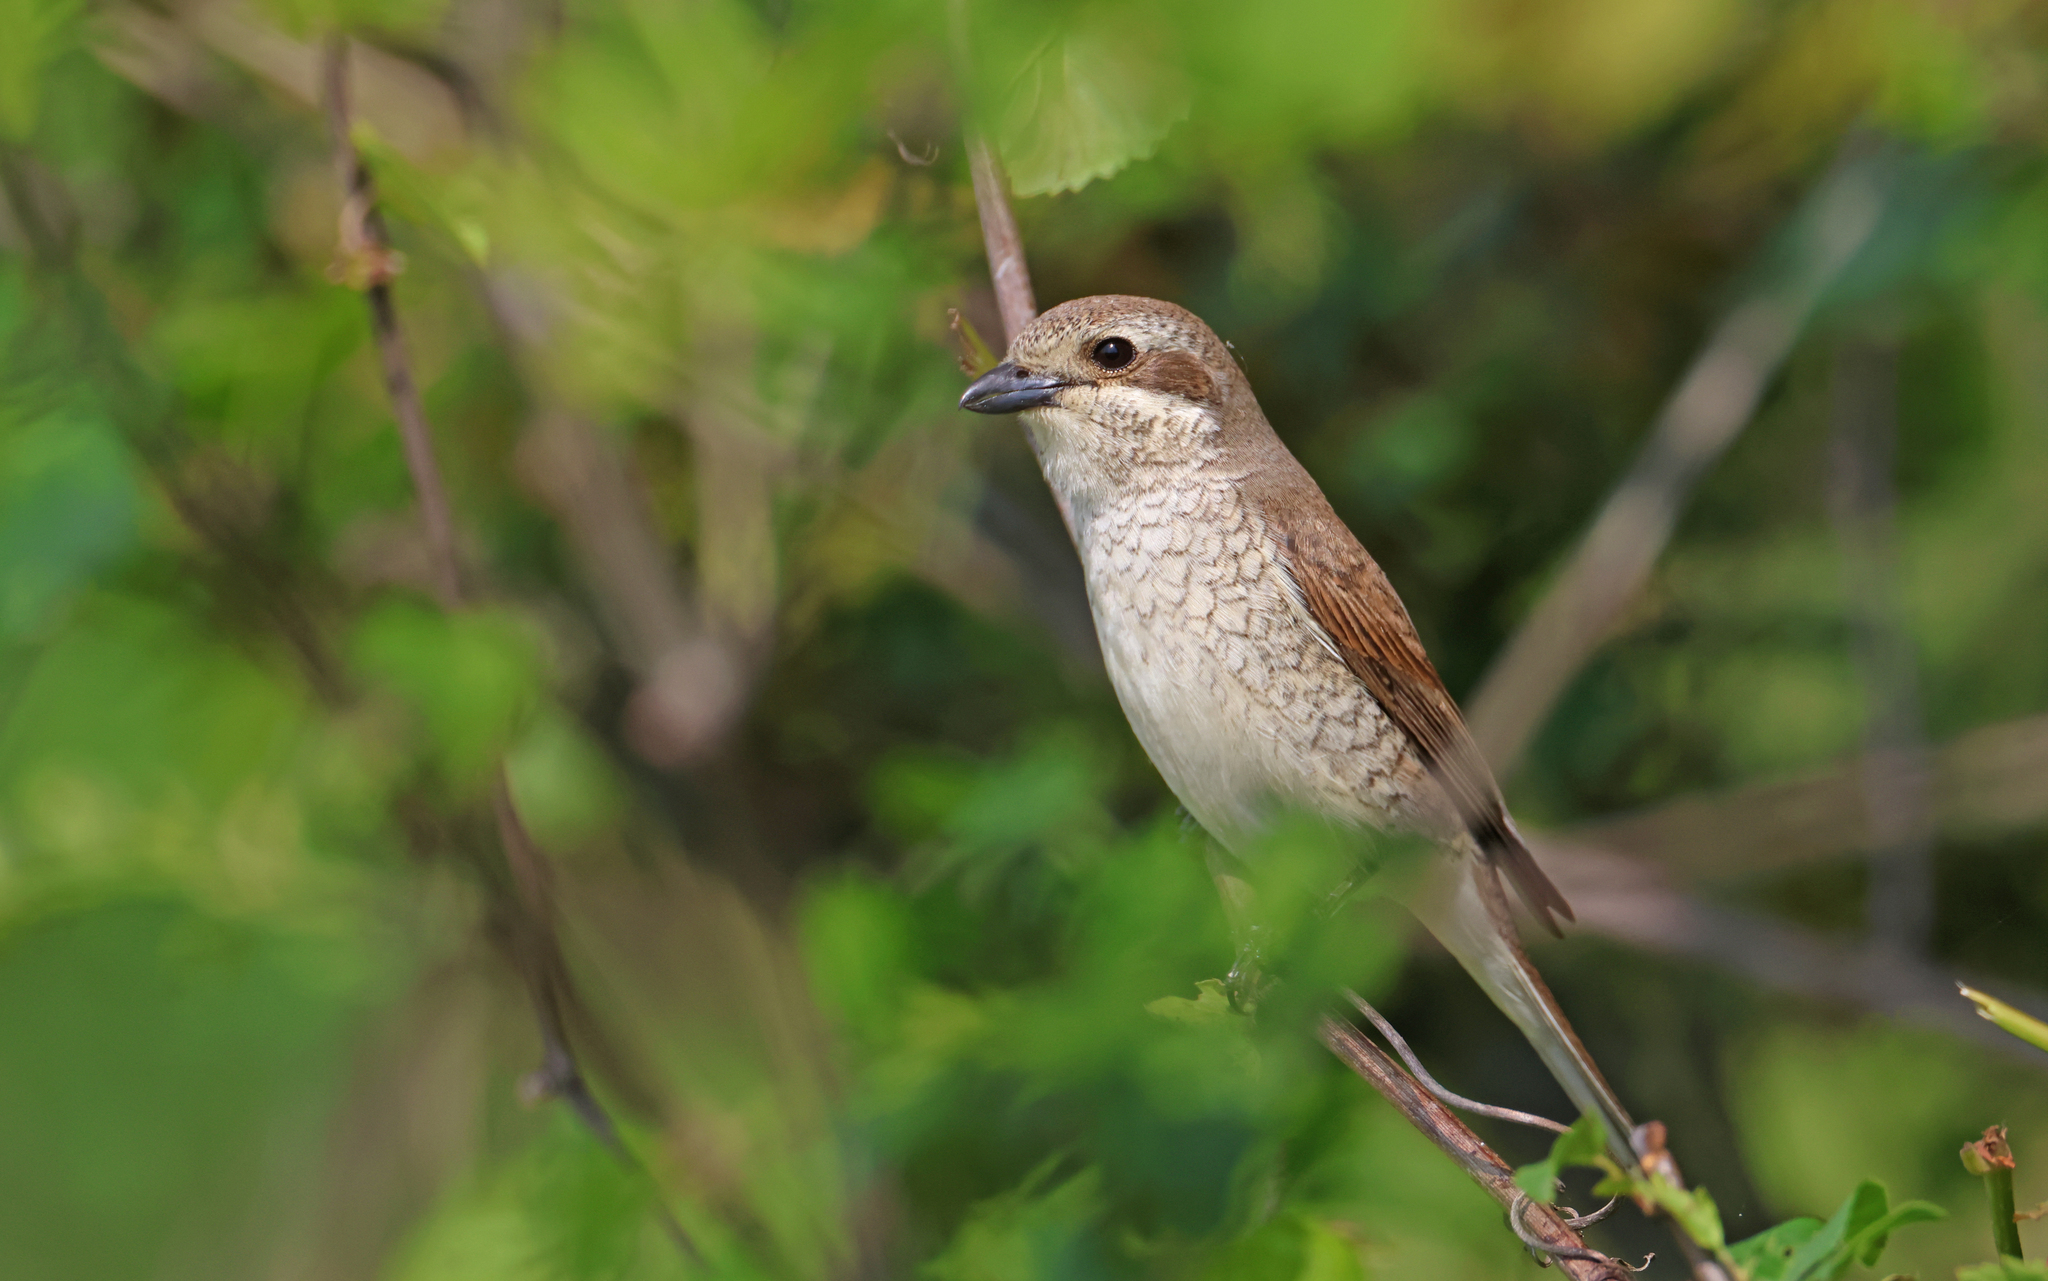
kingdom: Animalia
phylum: Chordata
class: Aves
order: Passeriformes
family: Laniidae
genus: Lanius
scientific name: Lanius collurio
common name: Red-backed shrike
